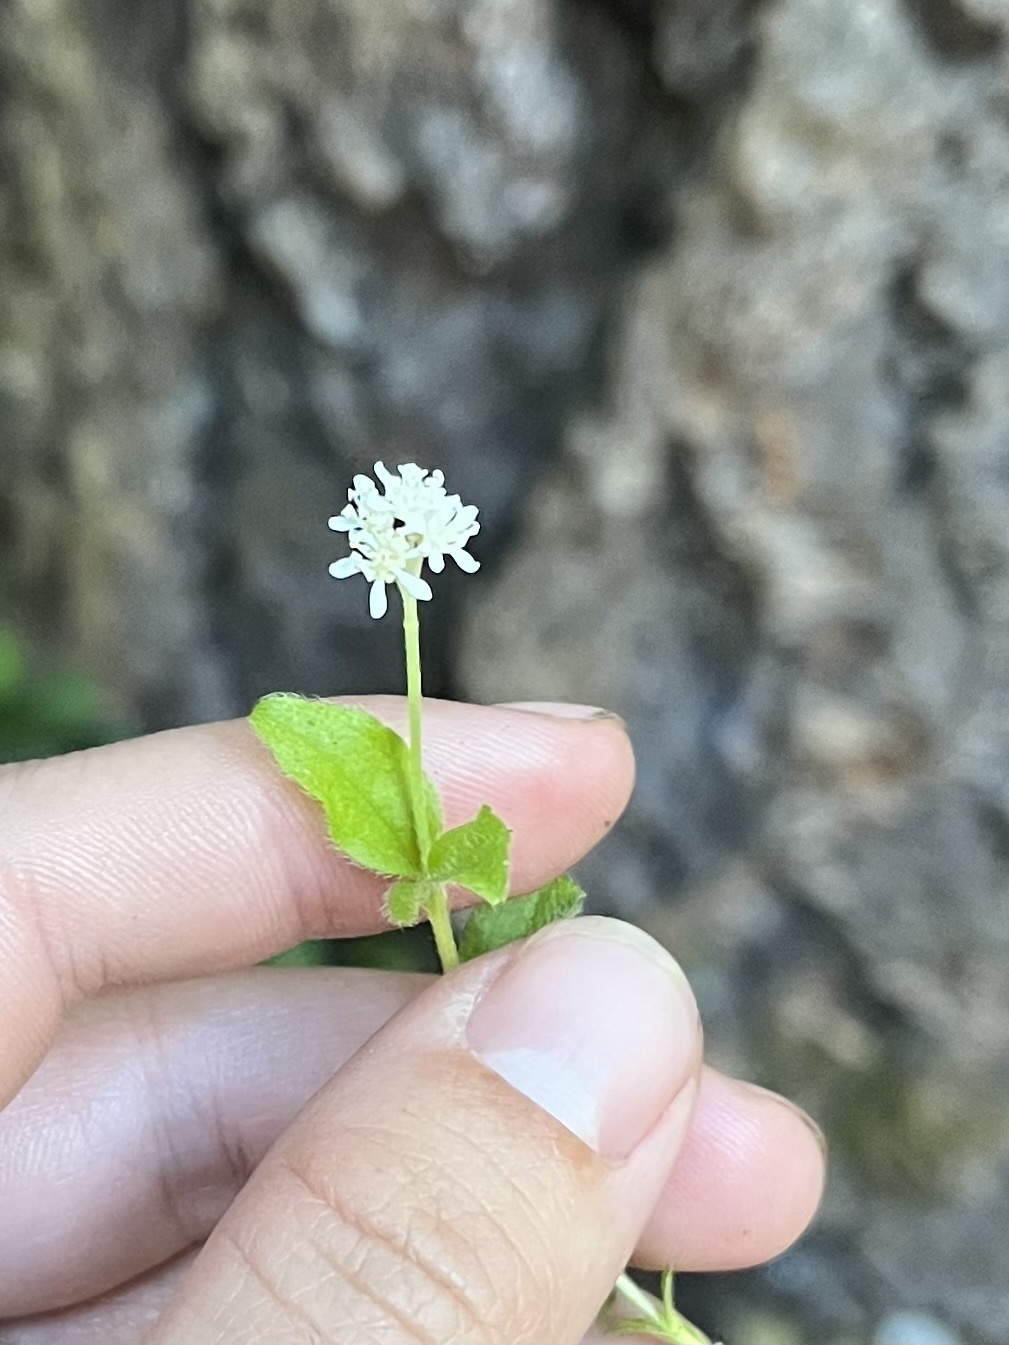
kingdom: Plantae
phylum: Tracheophyta
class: Magnoliopsida
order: Cornales
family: Hydrangeaceae
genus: Whipplea
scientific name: Whipplea modesta
